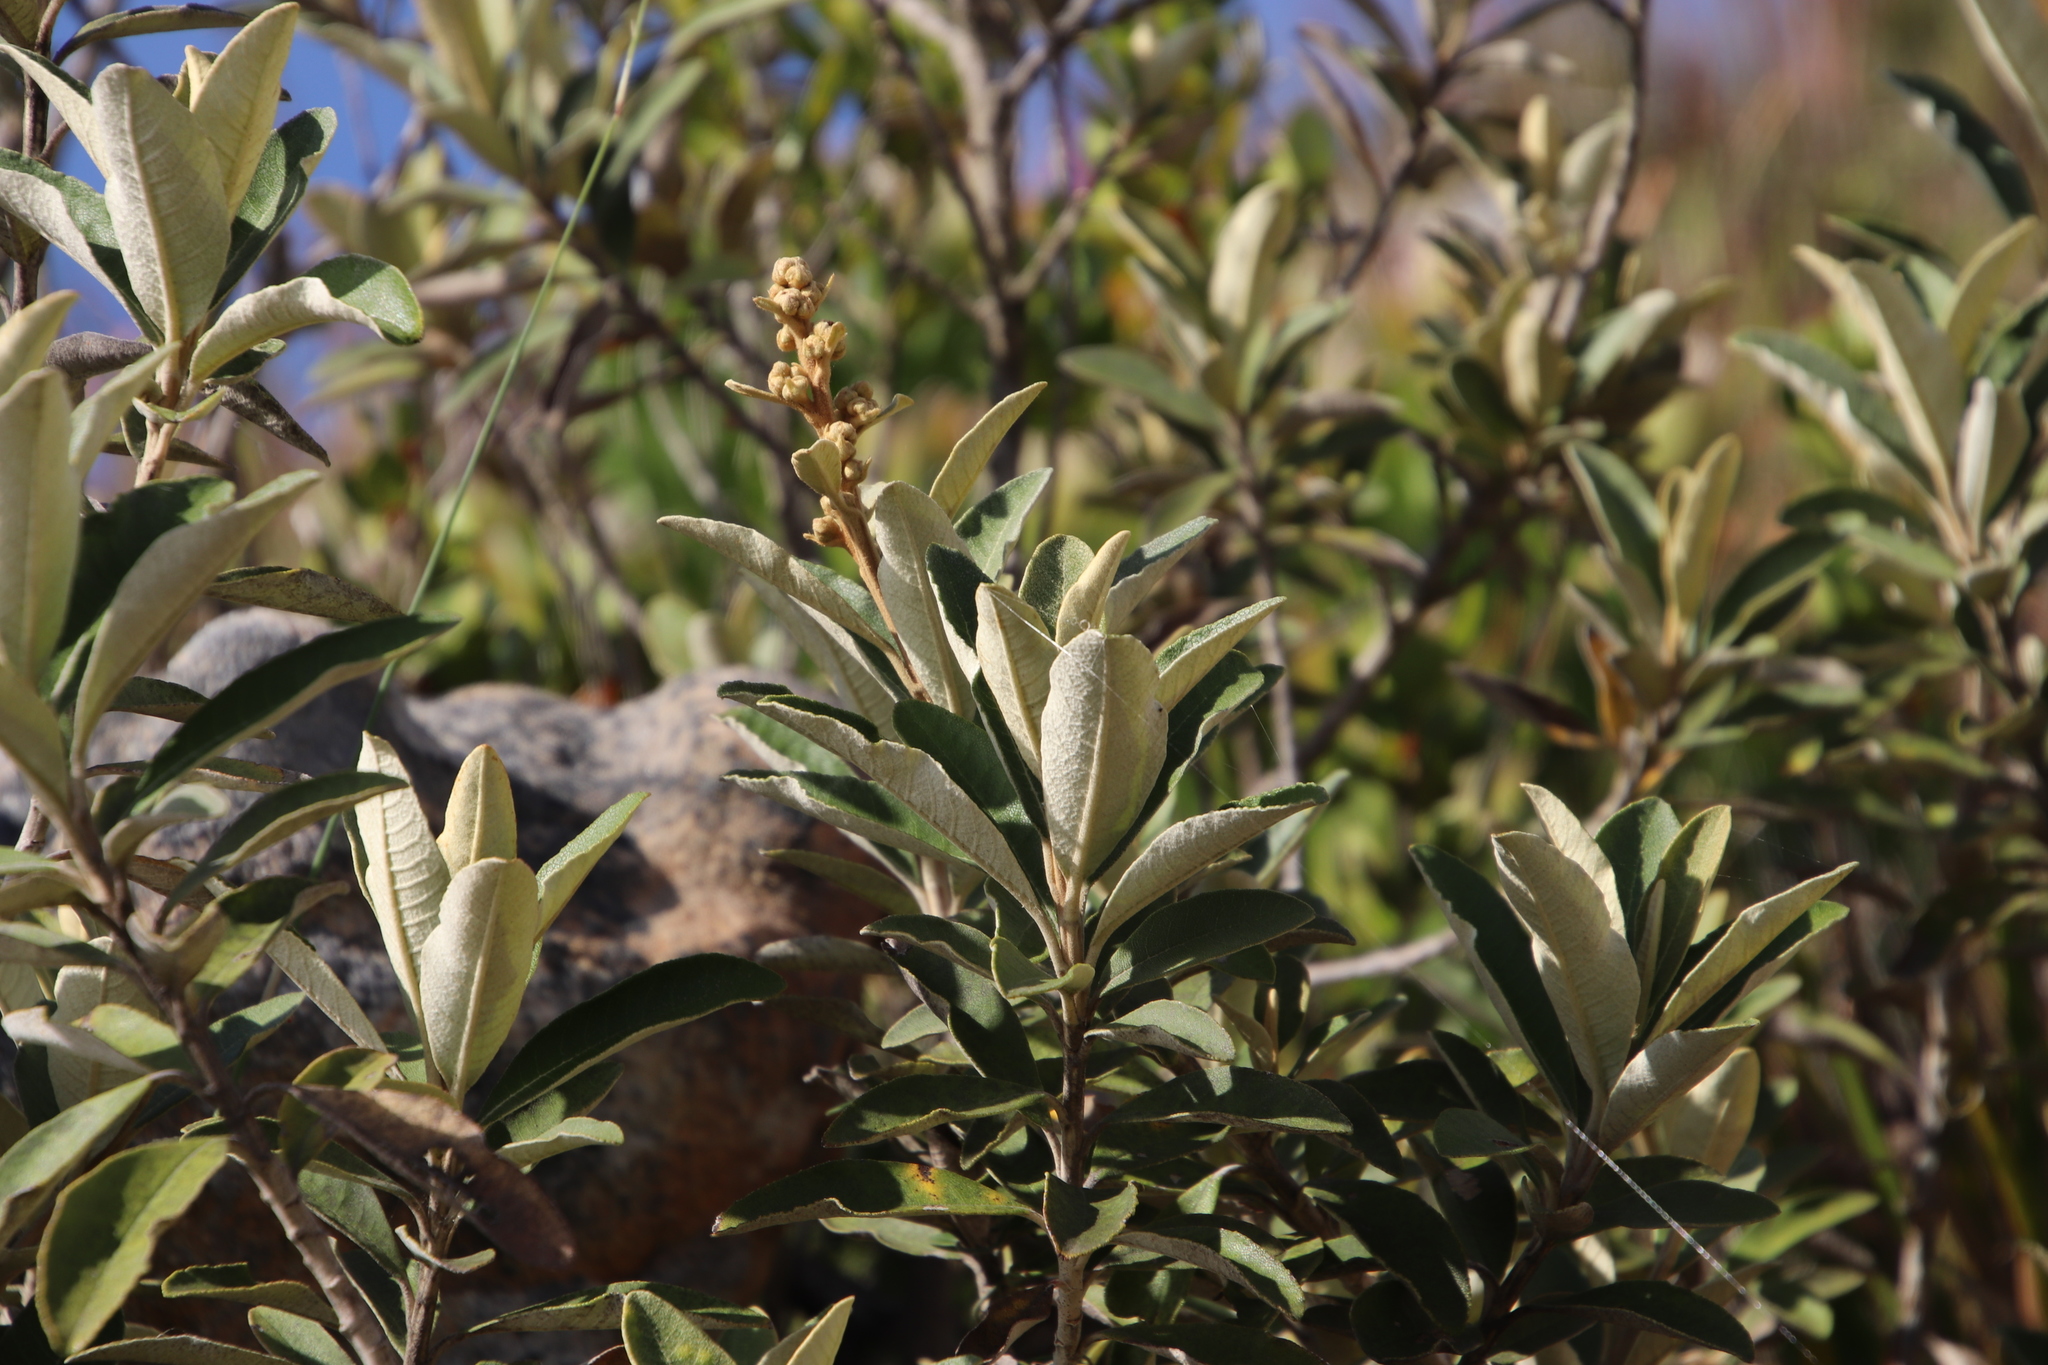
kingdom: Plantae
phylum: Tracheophyta
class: Magnoliopsida
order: Asterales
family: Asteraceae
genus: Tarchonanthus
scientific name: Tarchonanthus littoralis
